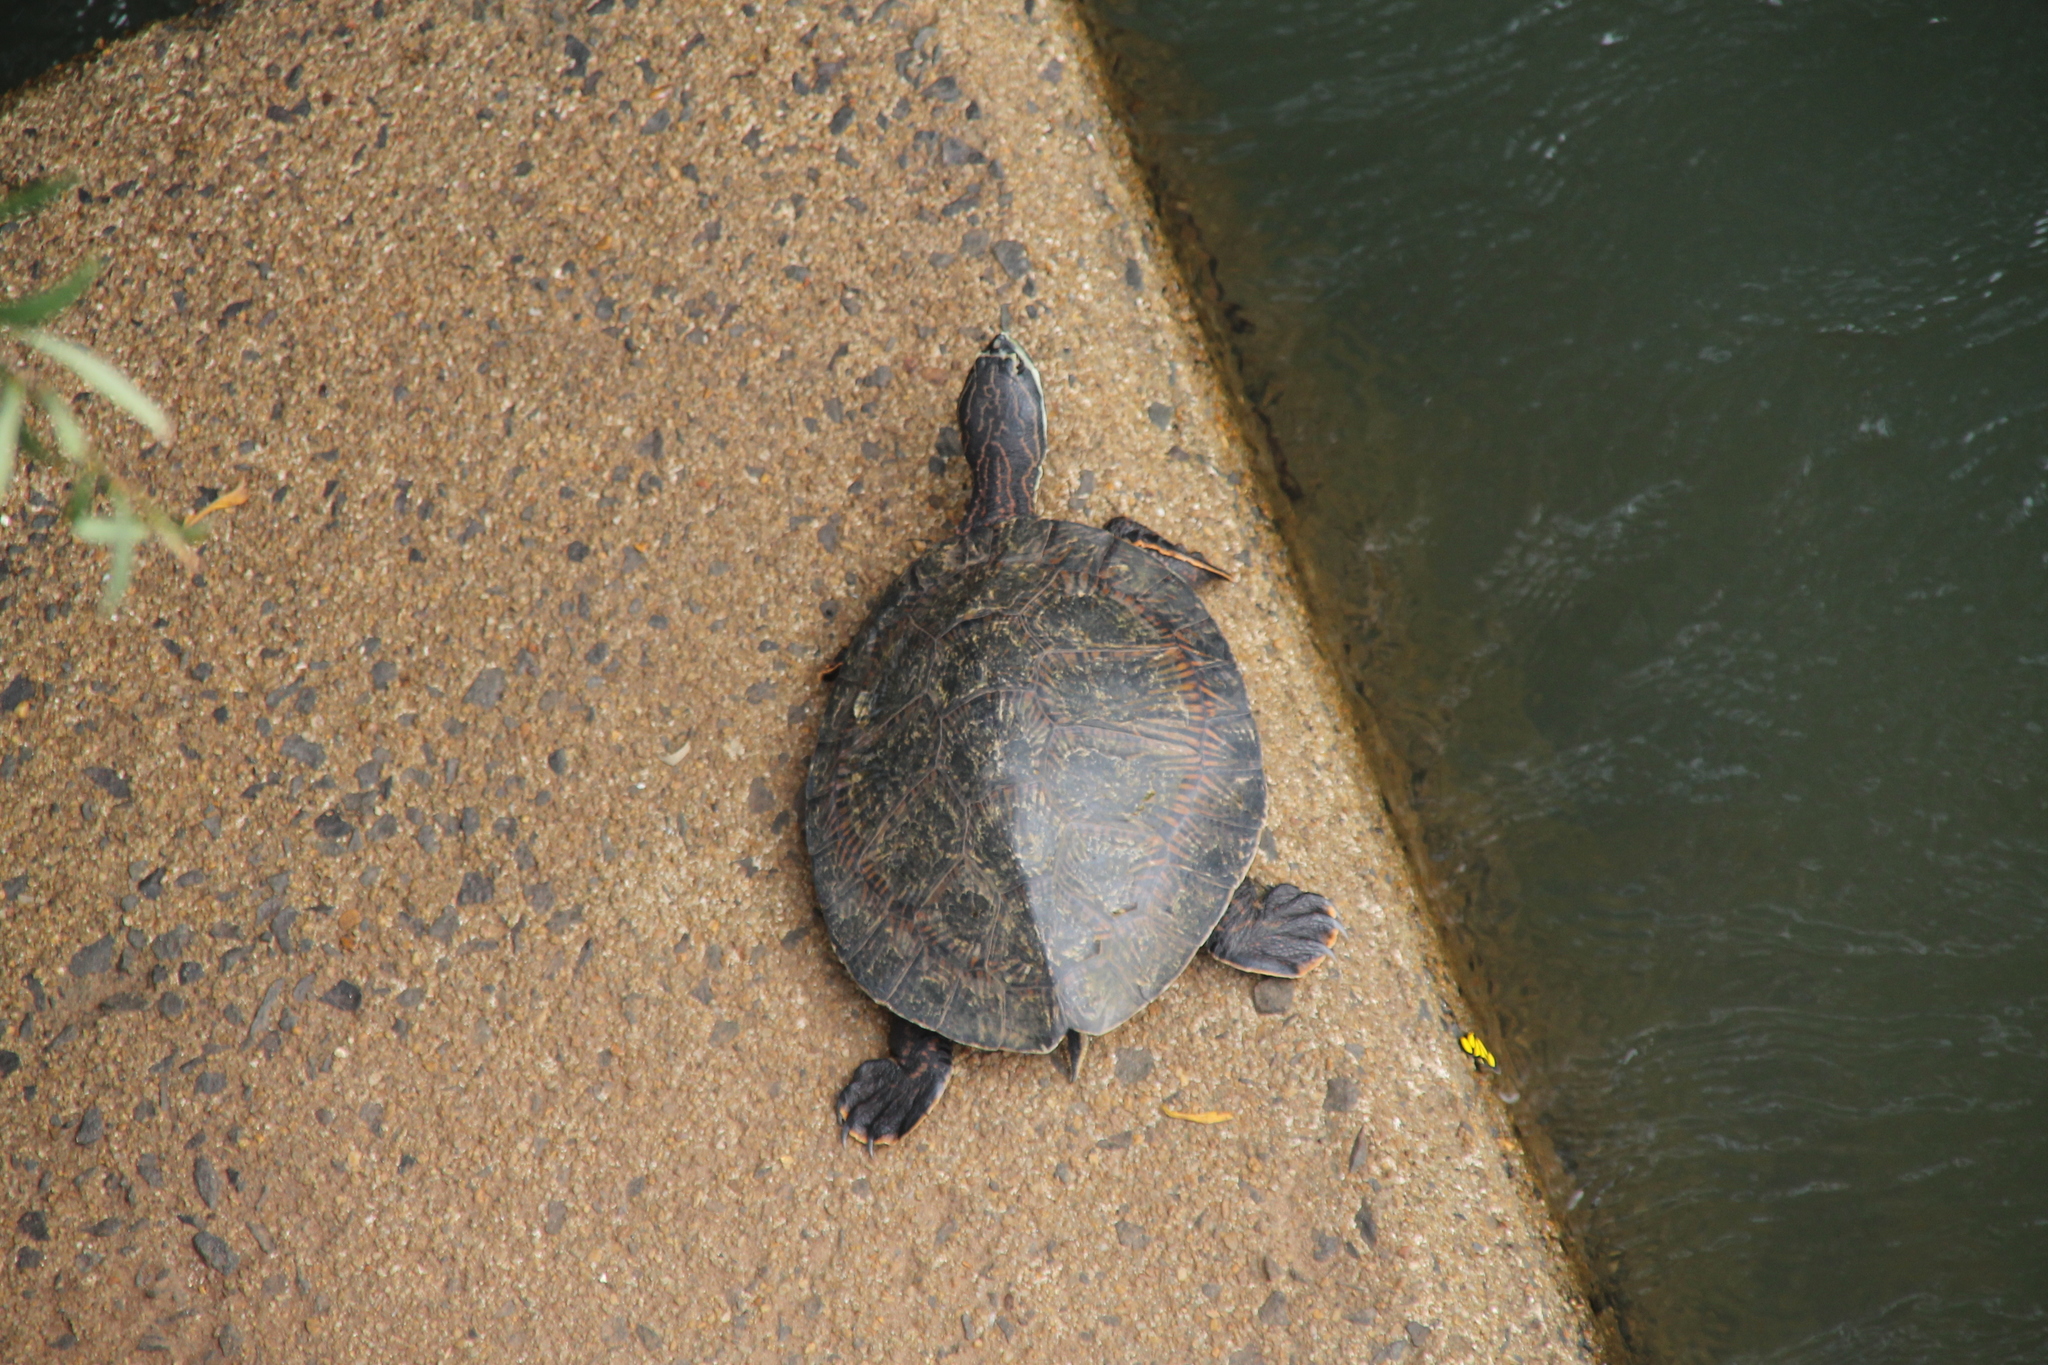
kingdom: Animalia
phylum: Chordata
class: Testudines
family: Chelidae
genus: Phrynops
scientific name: Phrynops williamsi
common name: Williams side-necked turtle
